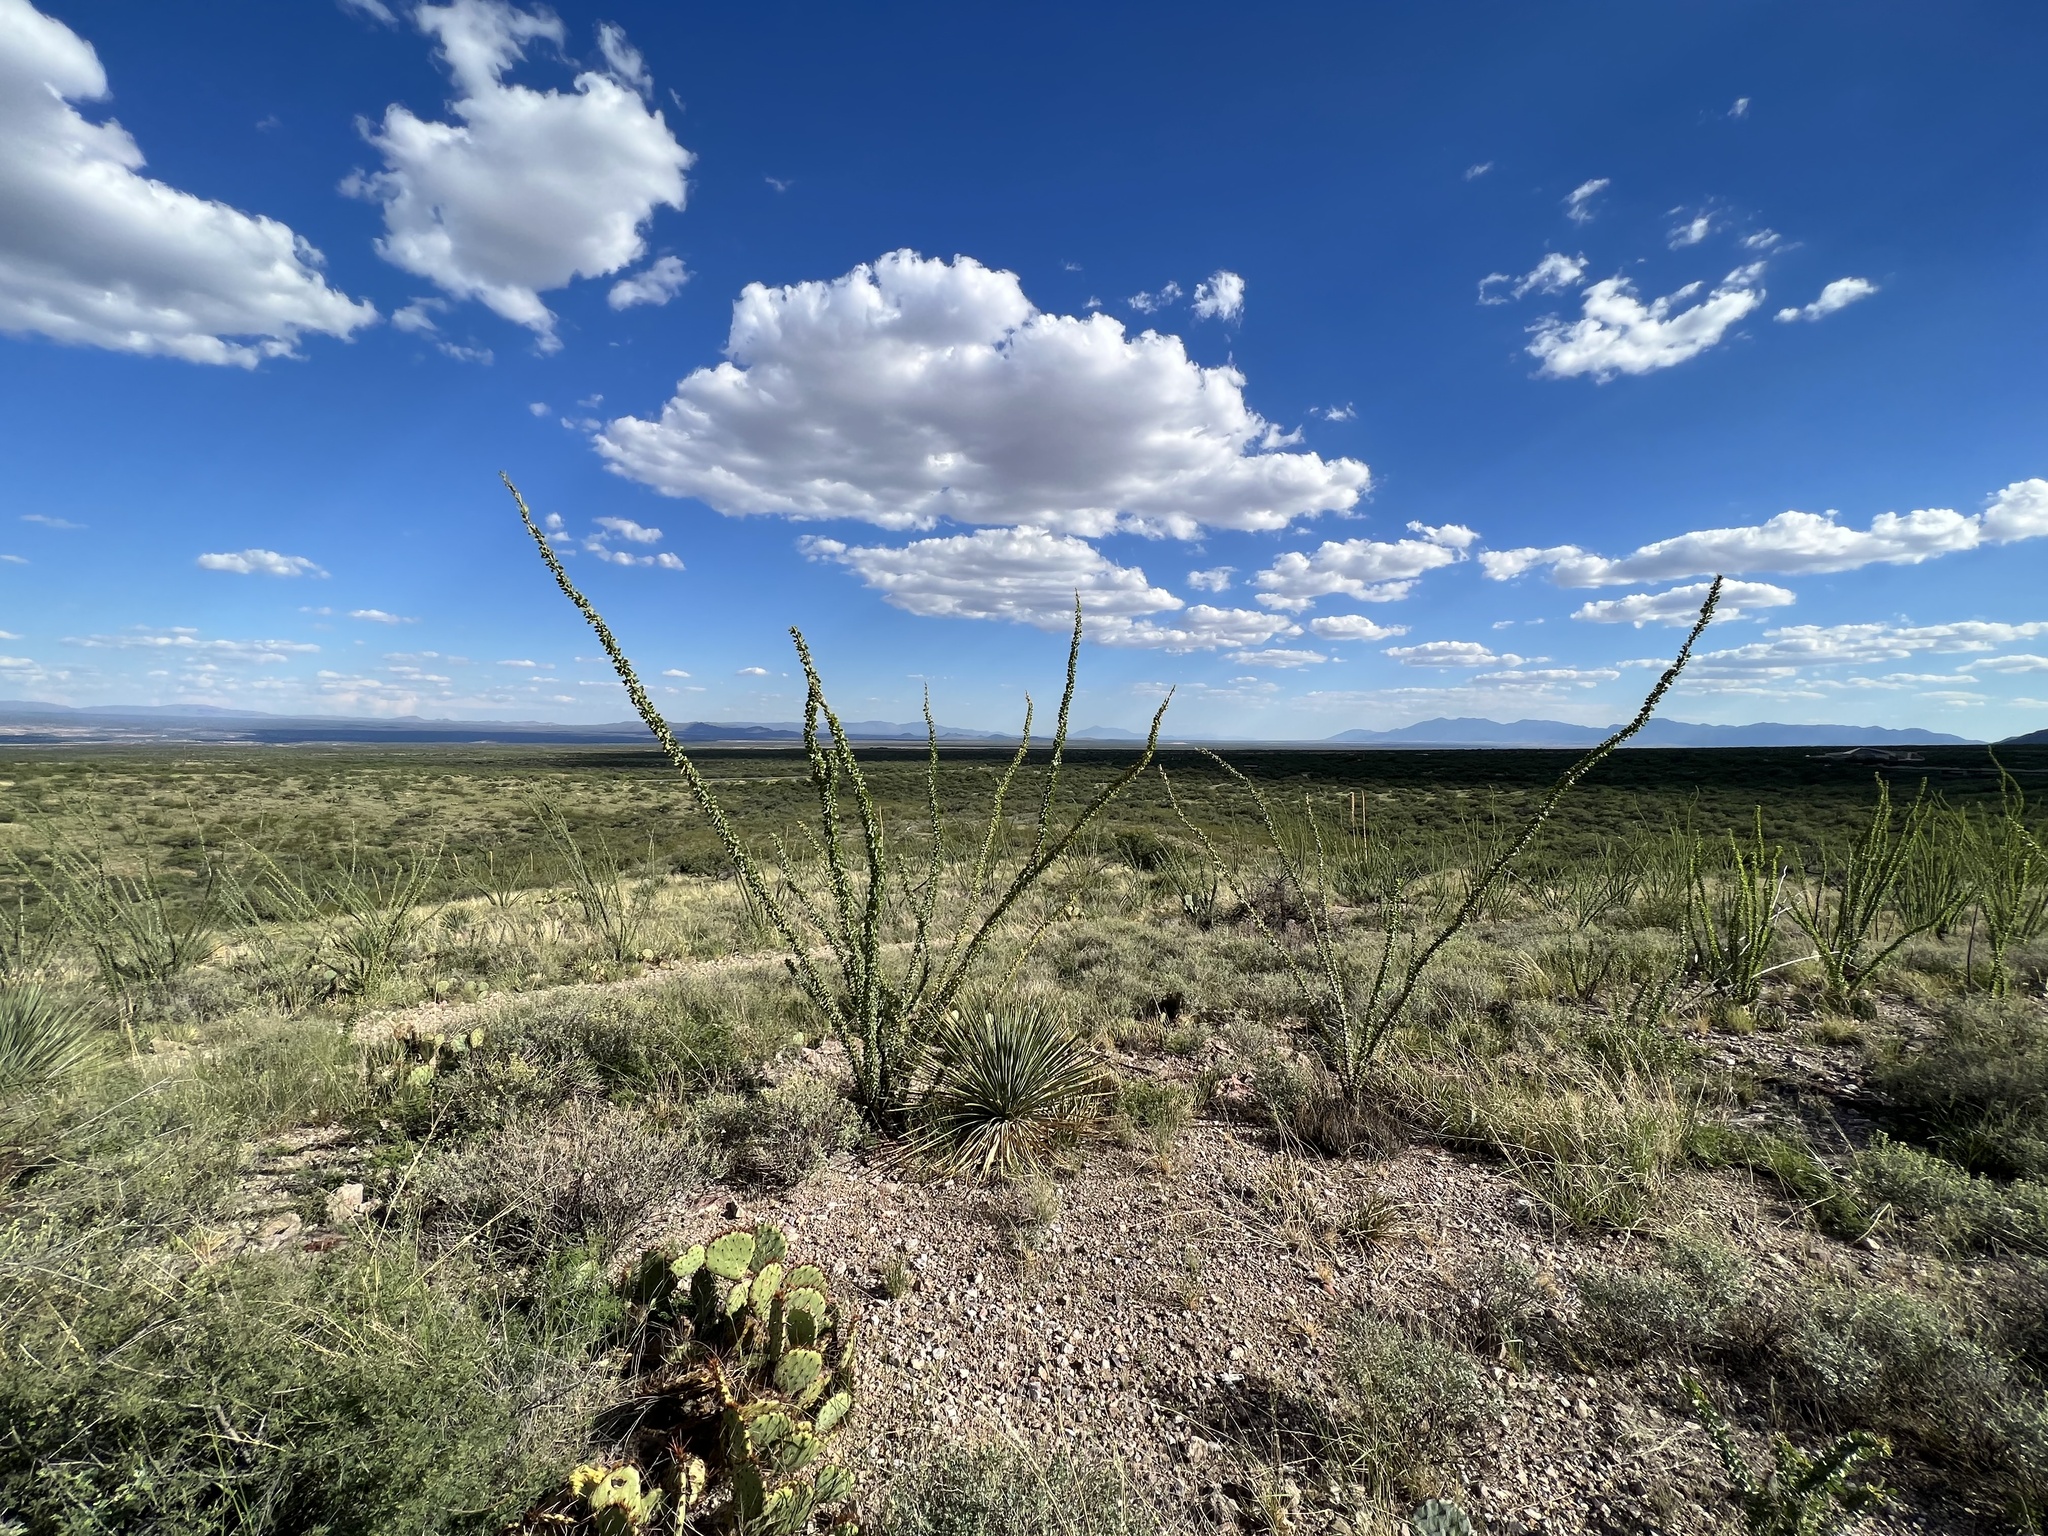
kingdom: Plantae
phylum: Tracheophyta
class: Magnoliopsida
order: Ericales
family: Fouquieriaceae
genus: Fouquieria
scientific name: Fouquieria splendens
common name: Vine-cactus
